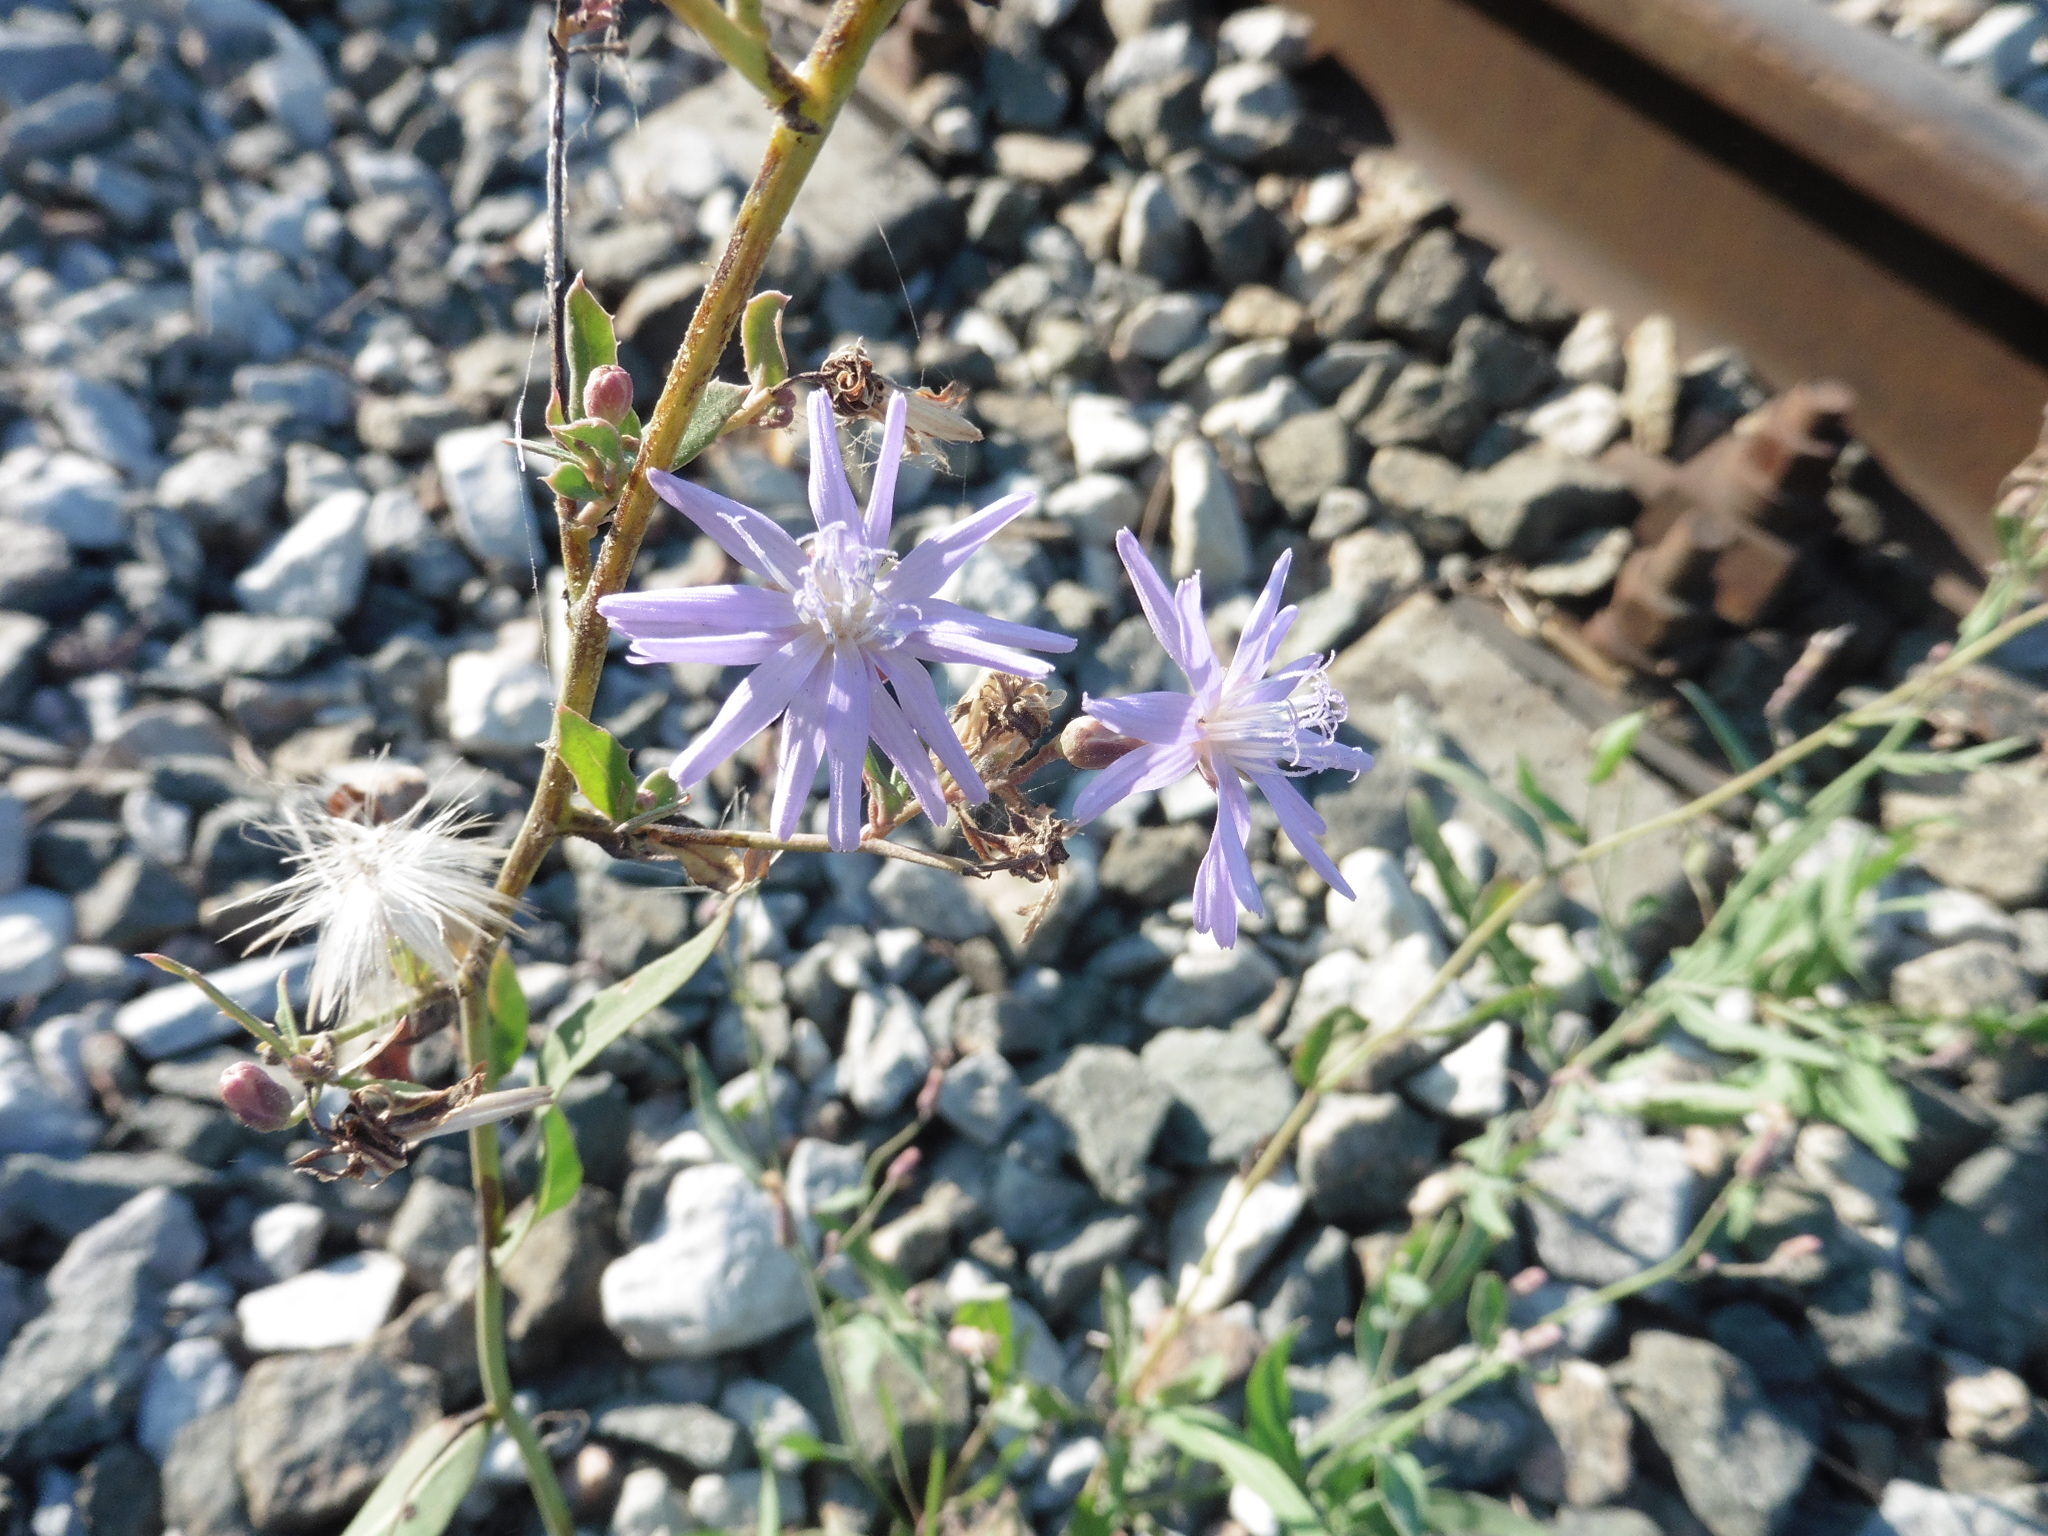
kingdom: Plantae
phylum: Tracheophyta
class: Magnoliopsida
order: Asterales
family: Asteraceae
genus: Lactuca
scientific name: Lactuca tatarica
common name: Blue lettuce
